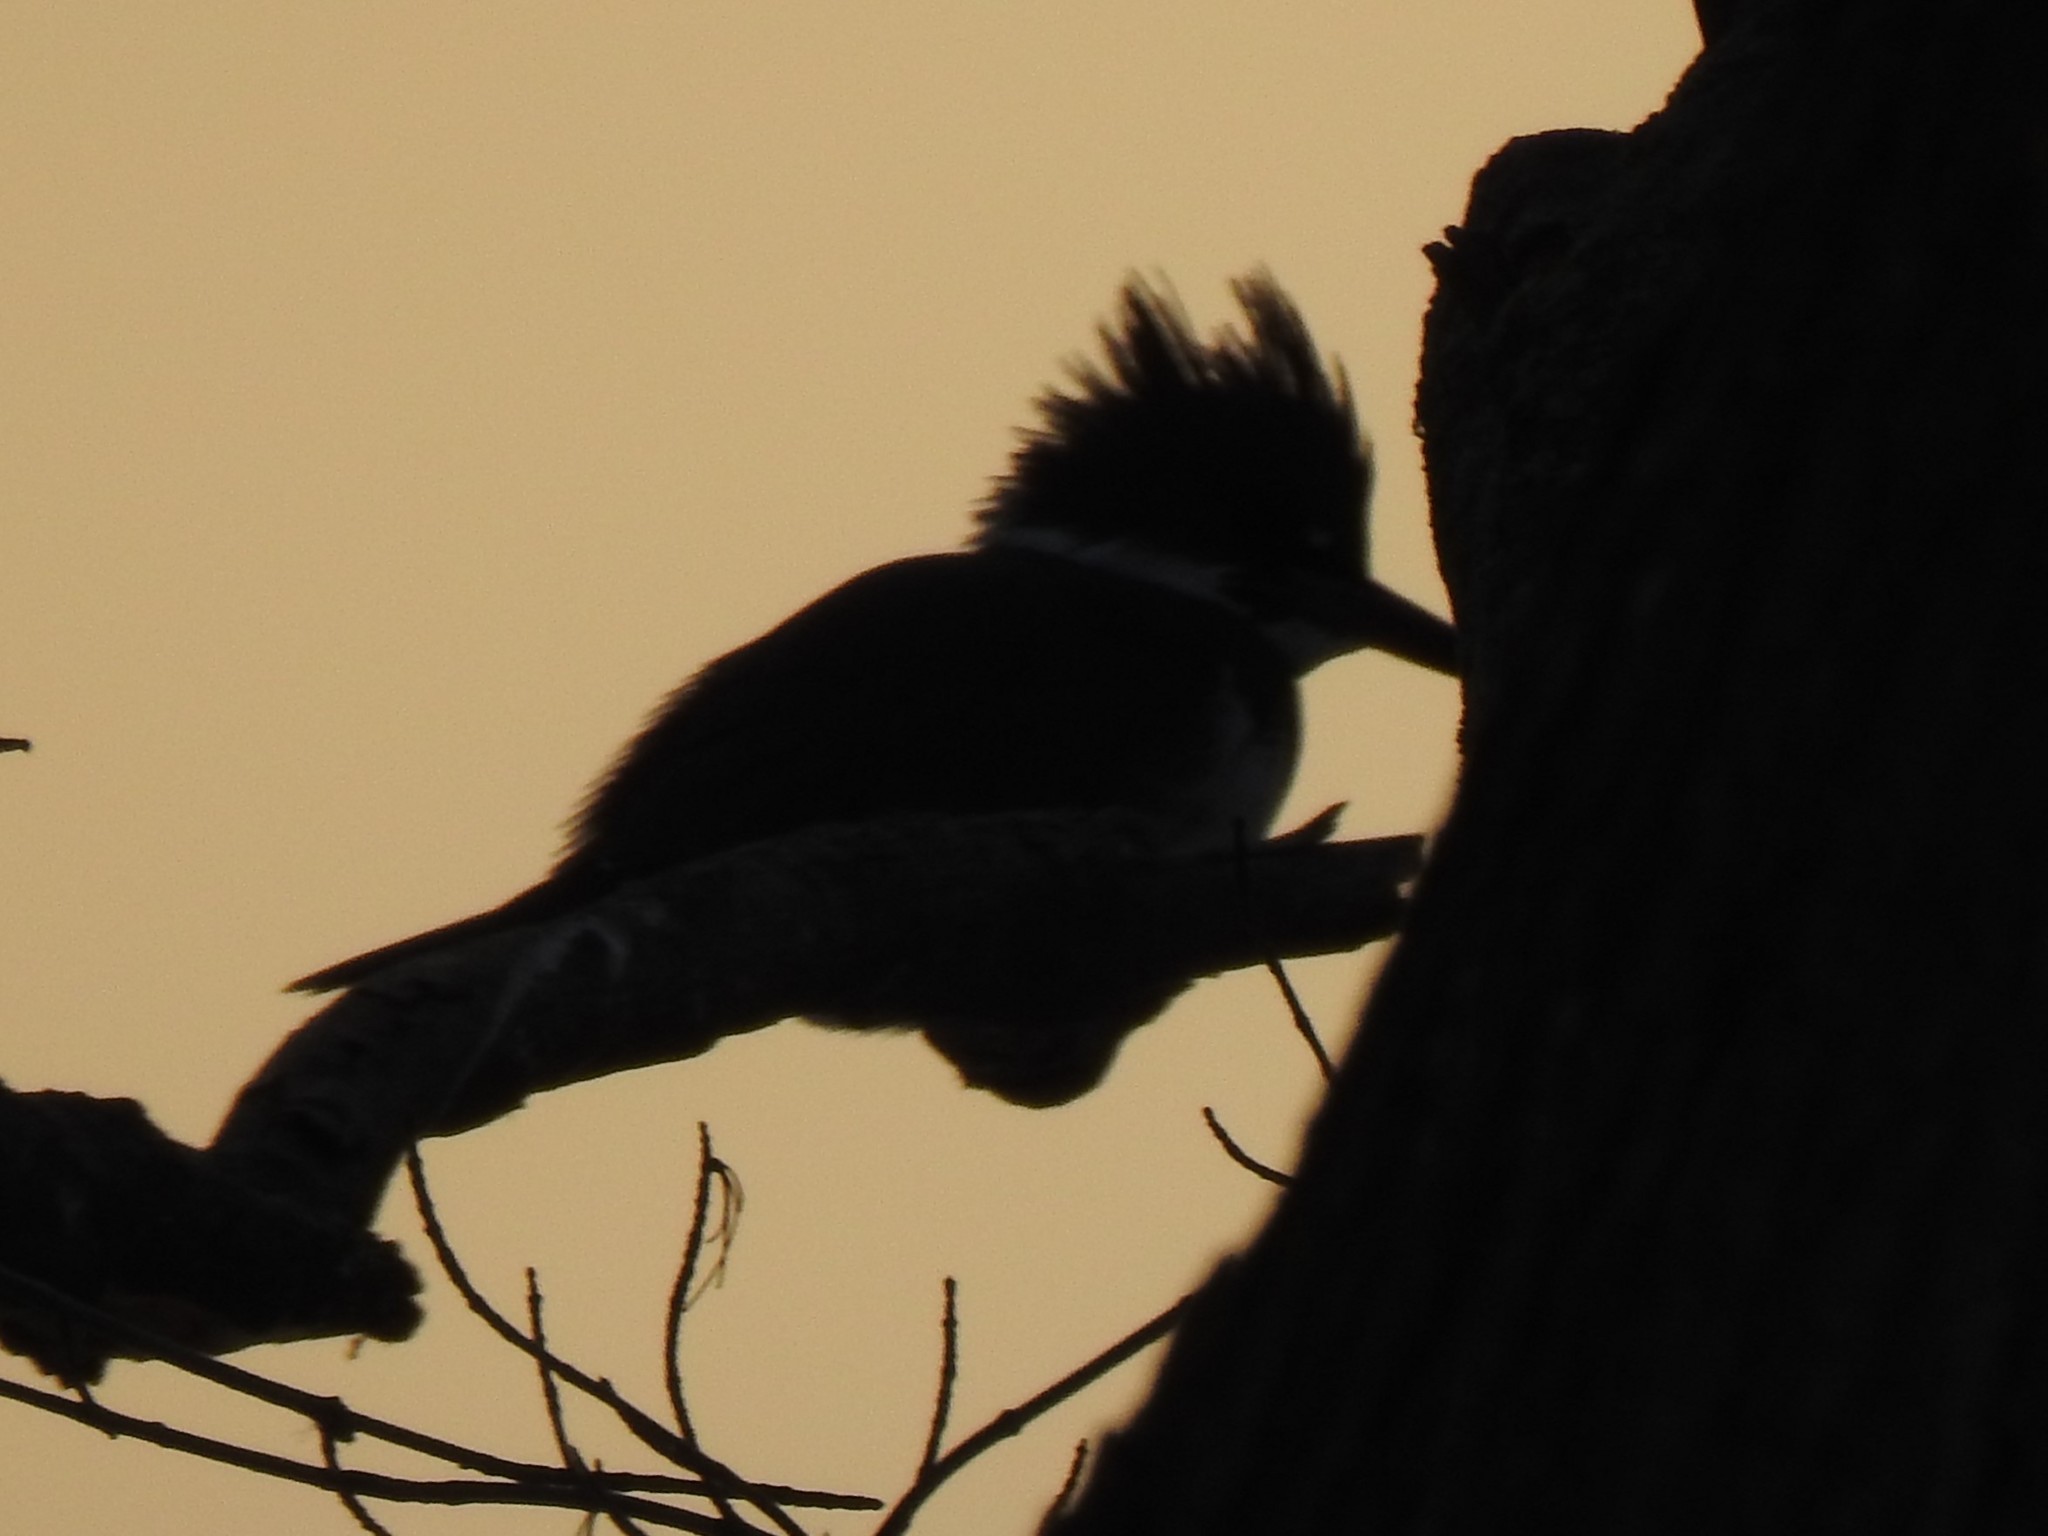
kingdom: Animalia
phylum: Chordata
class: Aves
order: Coraciiformes
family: Alcedinidae
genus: Megaceryle
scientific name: Megaceryle alcyon
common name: Belted kingfisher
